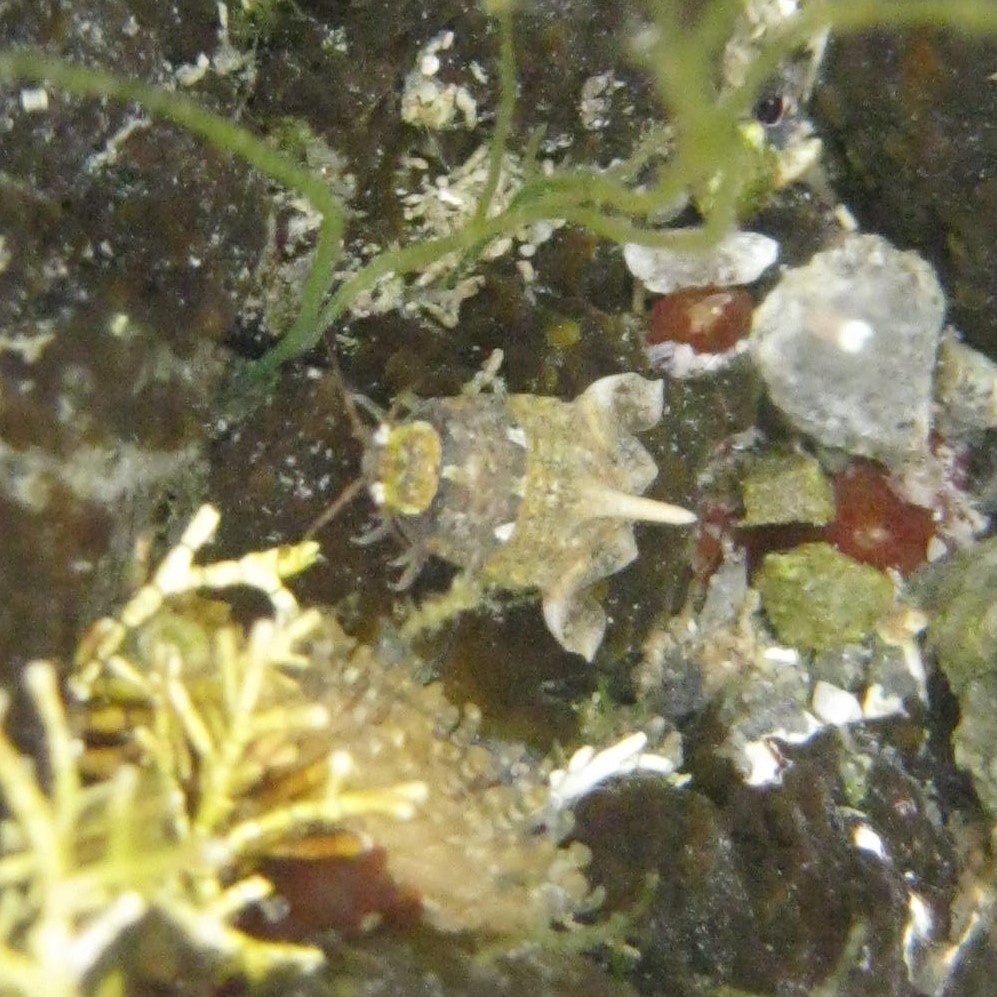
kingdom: Animalia
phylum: Arthropoda
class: Malacostraca
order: Isopoda
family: Sphaeromatidae
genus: Isocladus
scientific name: Isocladus dulciculus
